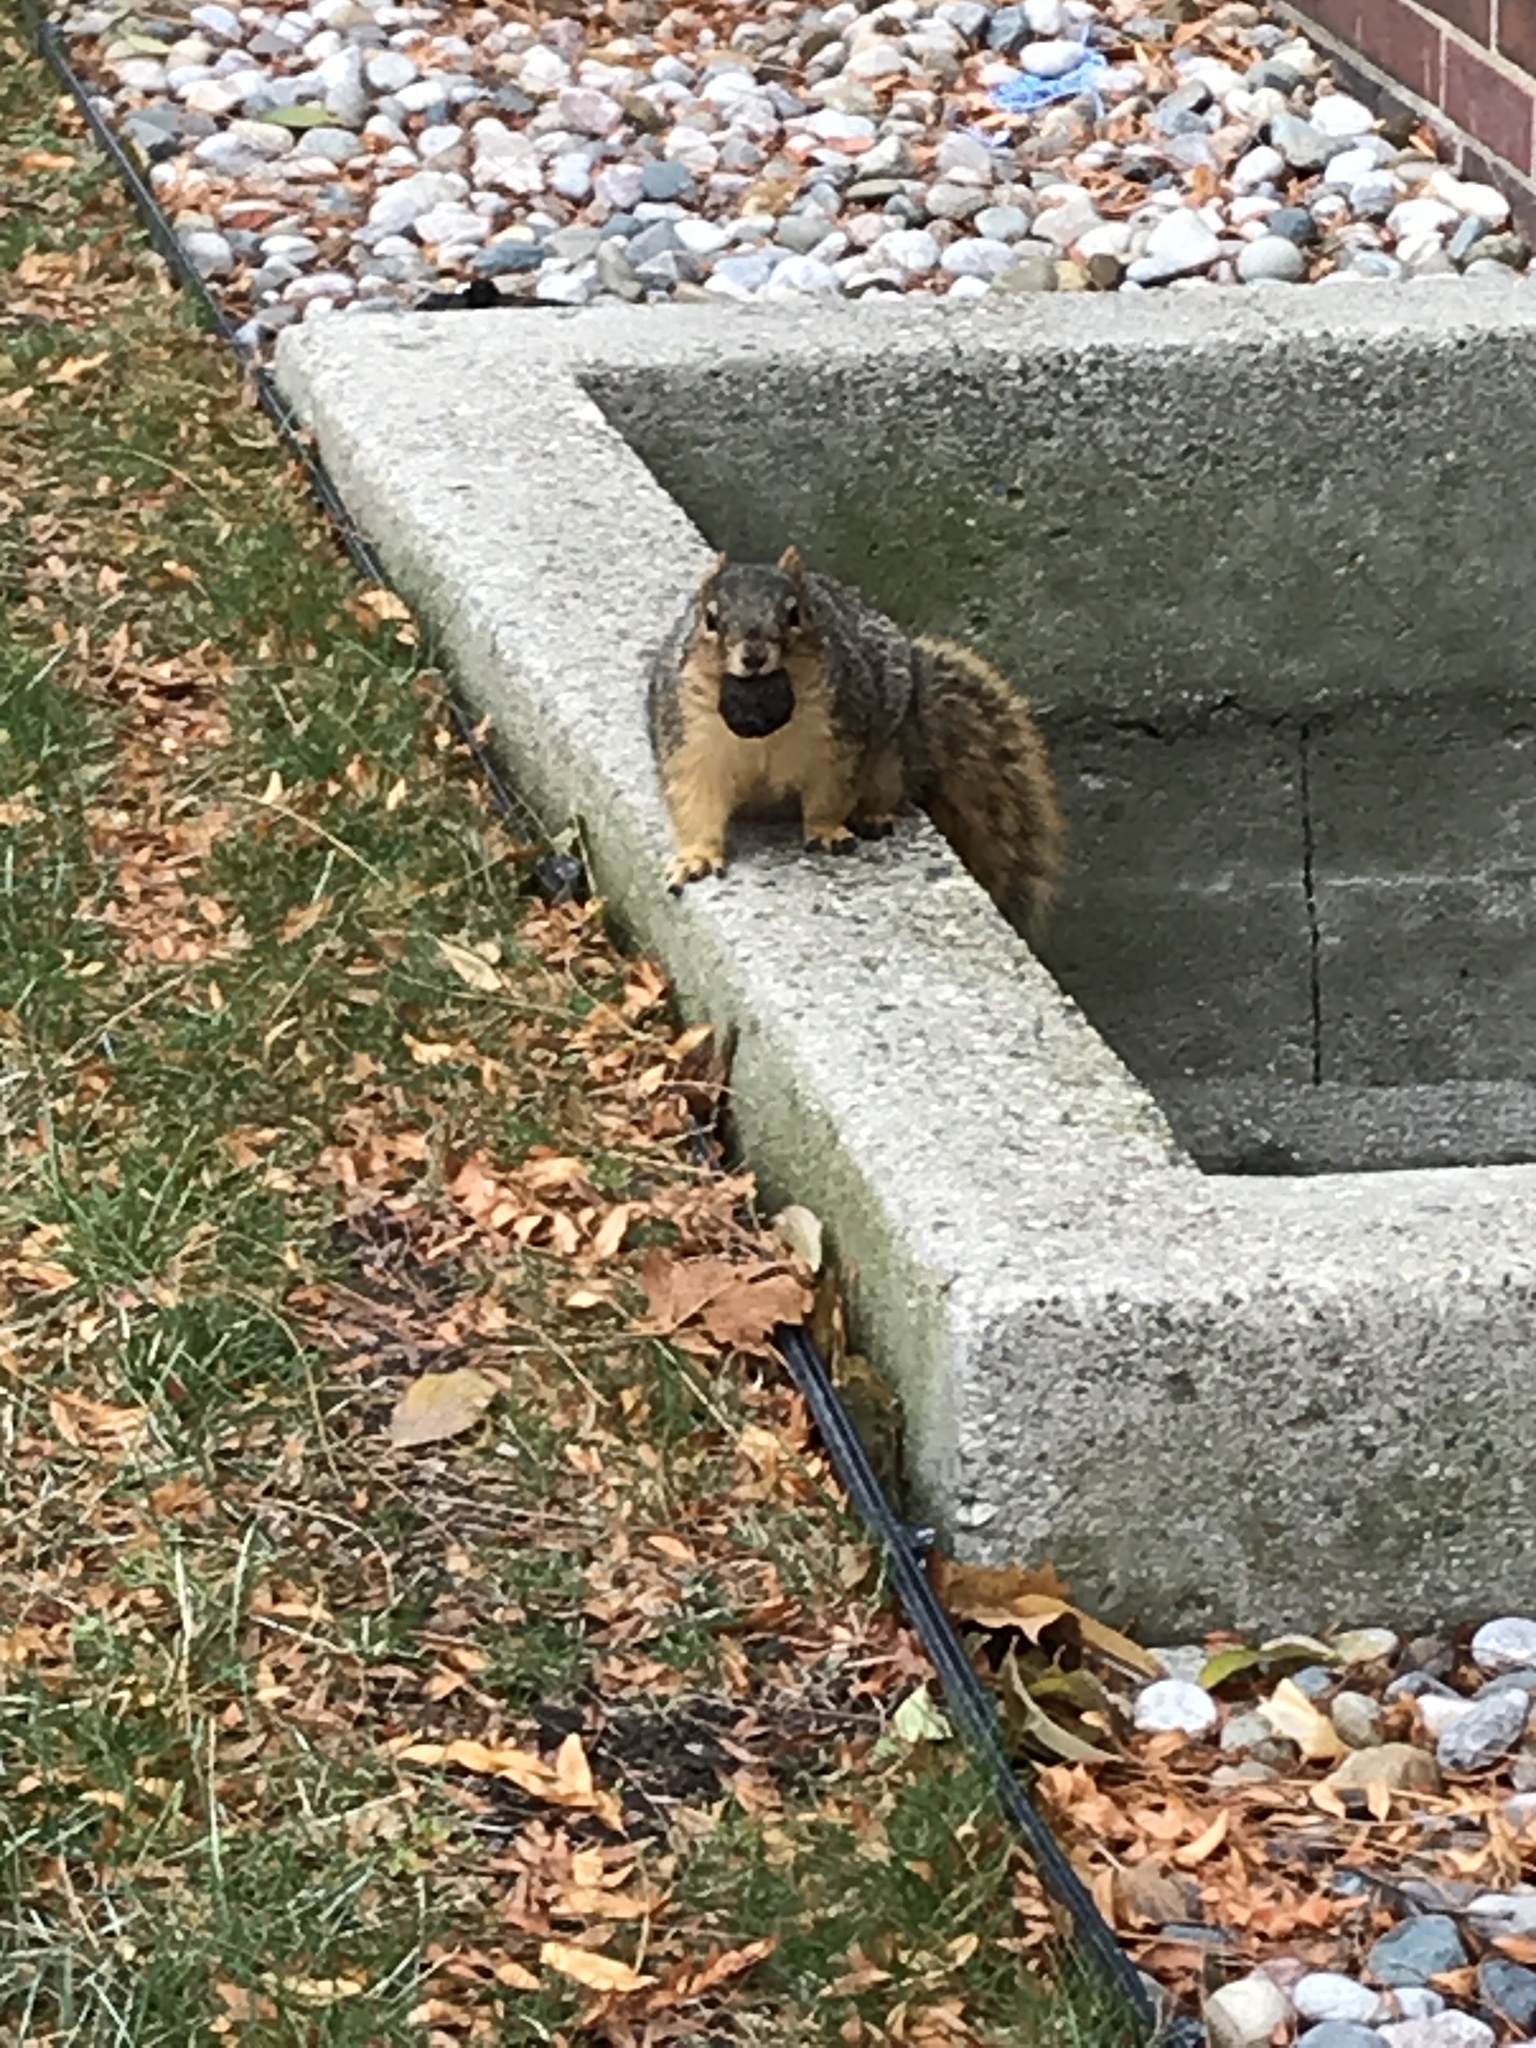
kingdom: Animalia
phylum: Chordata
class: Mammalia
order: Rodentia
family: Sciuridae
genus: Sciurus
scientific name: Sciurus niger
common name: Fox squirrel
